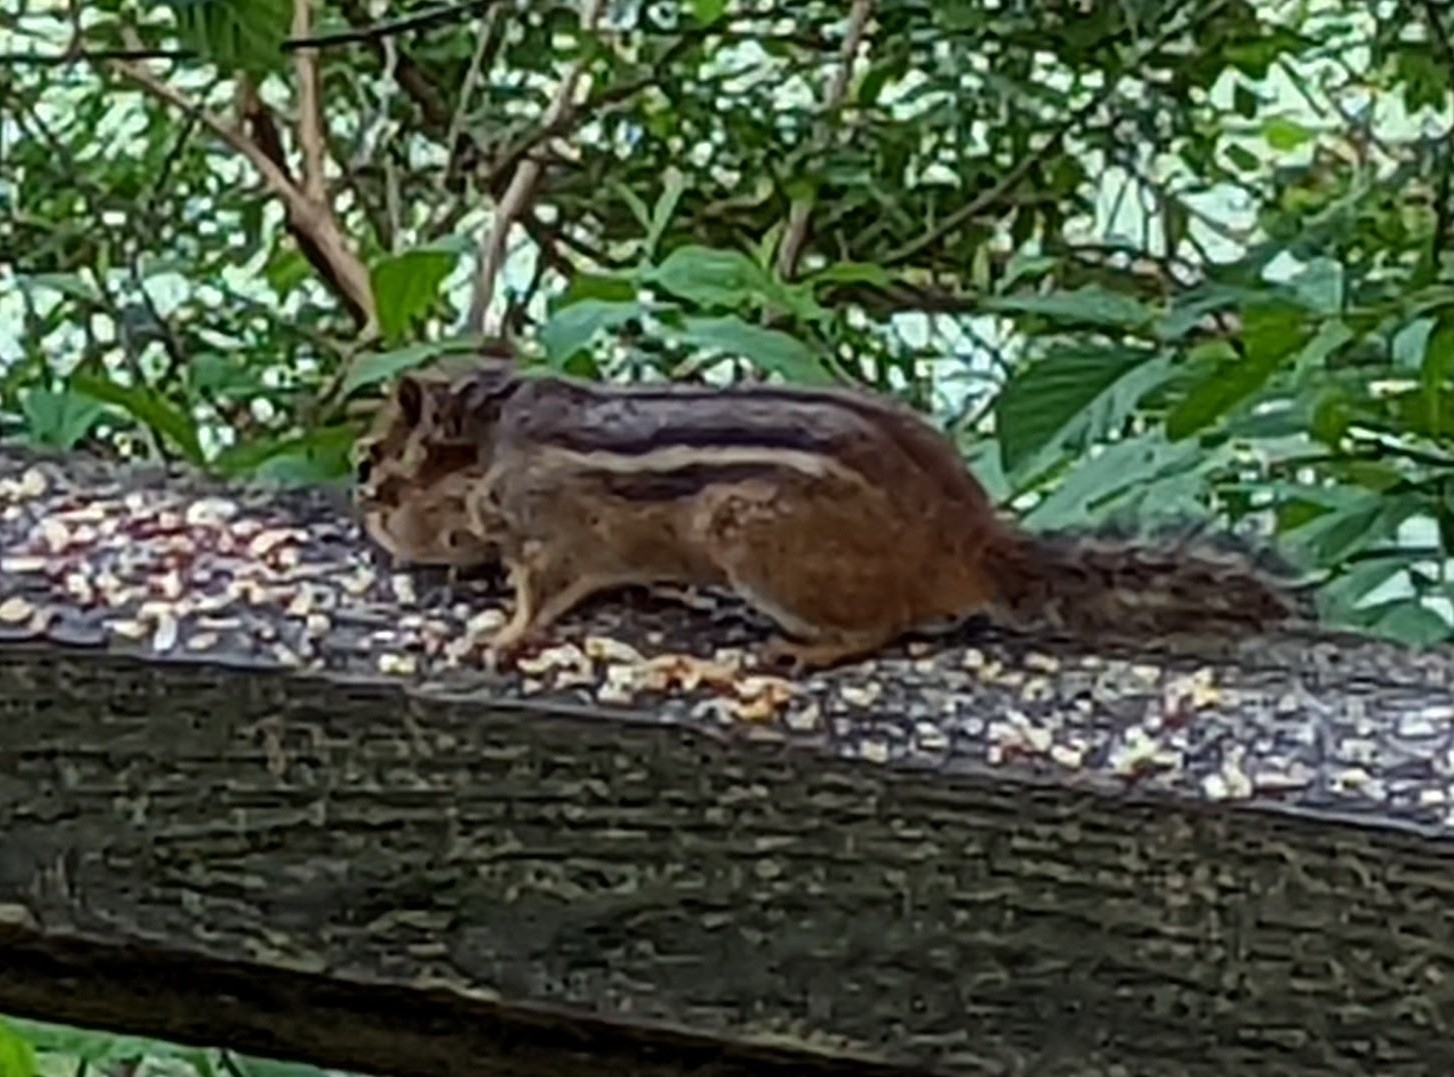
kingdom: Animalia
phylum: Chordata
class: Mammalia
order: Rodentia
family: Sciuridae
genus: Tamias
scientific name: Tamias striatus
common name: Eastern chipmunk
